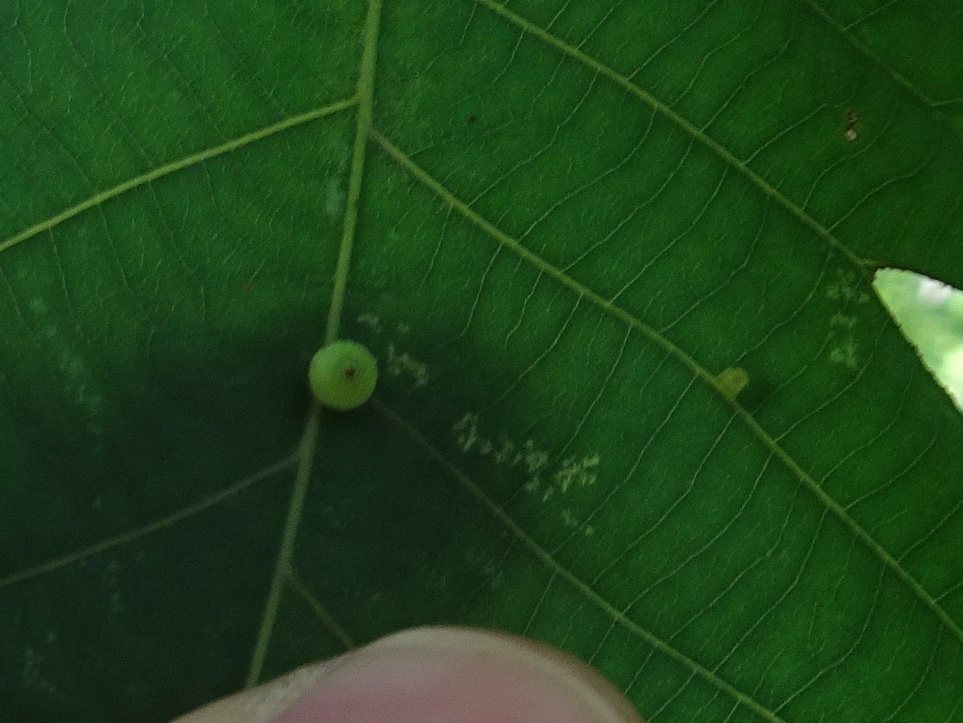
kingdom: Animalia
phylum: Arthropoda
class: Insecta
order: Diptera
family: Cecidomyiidae
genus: Caryomyia
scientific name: Caryomyia viscidolium
